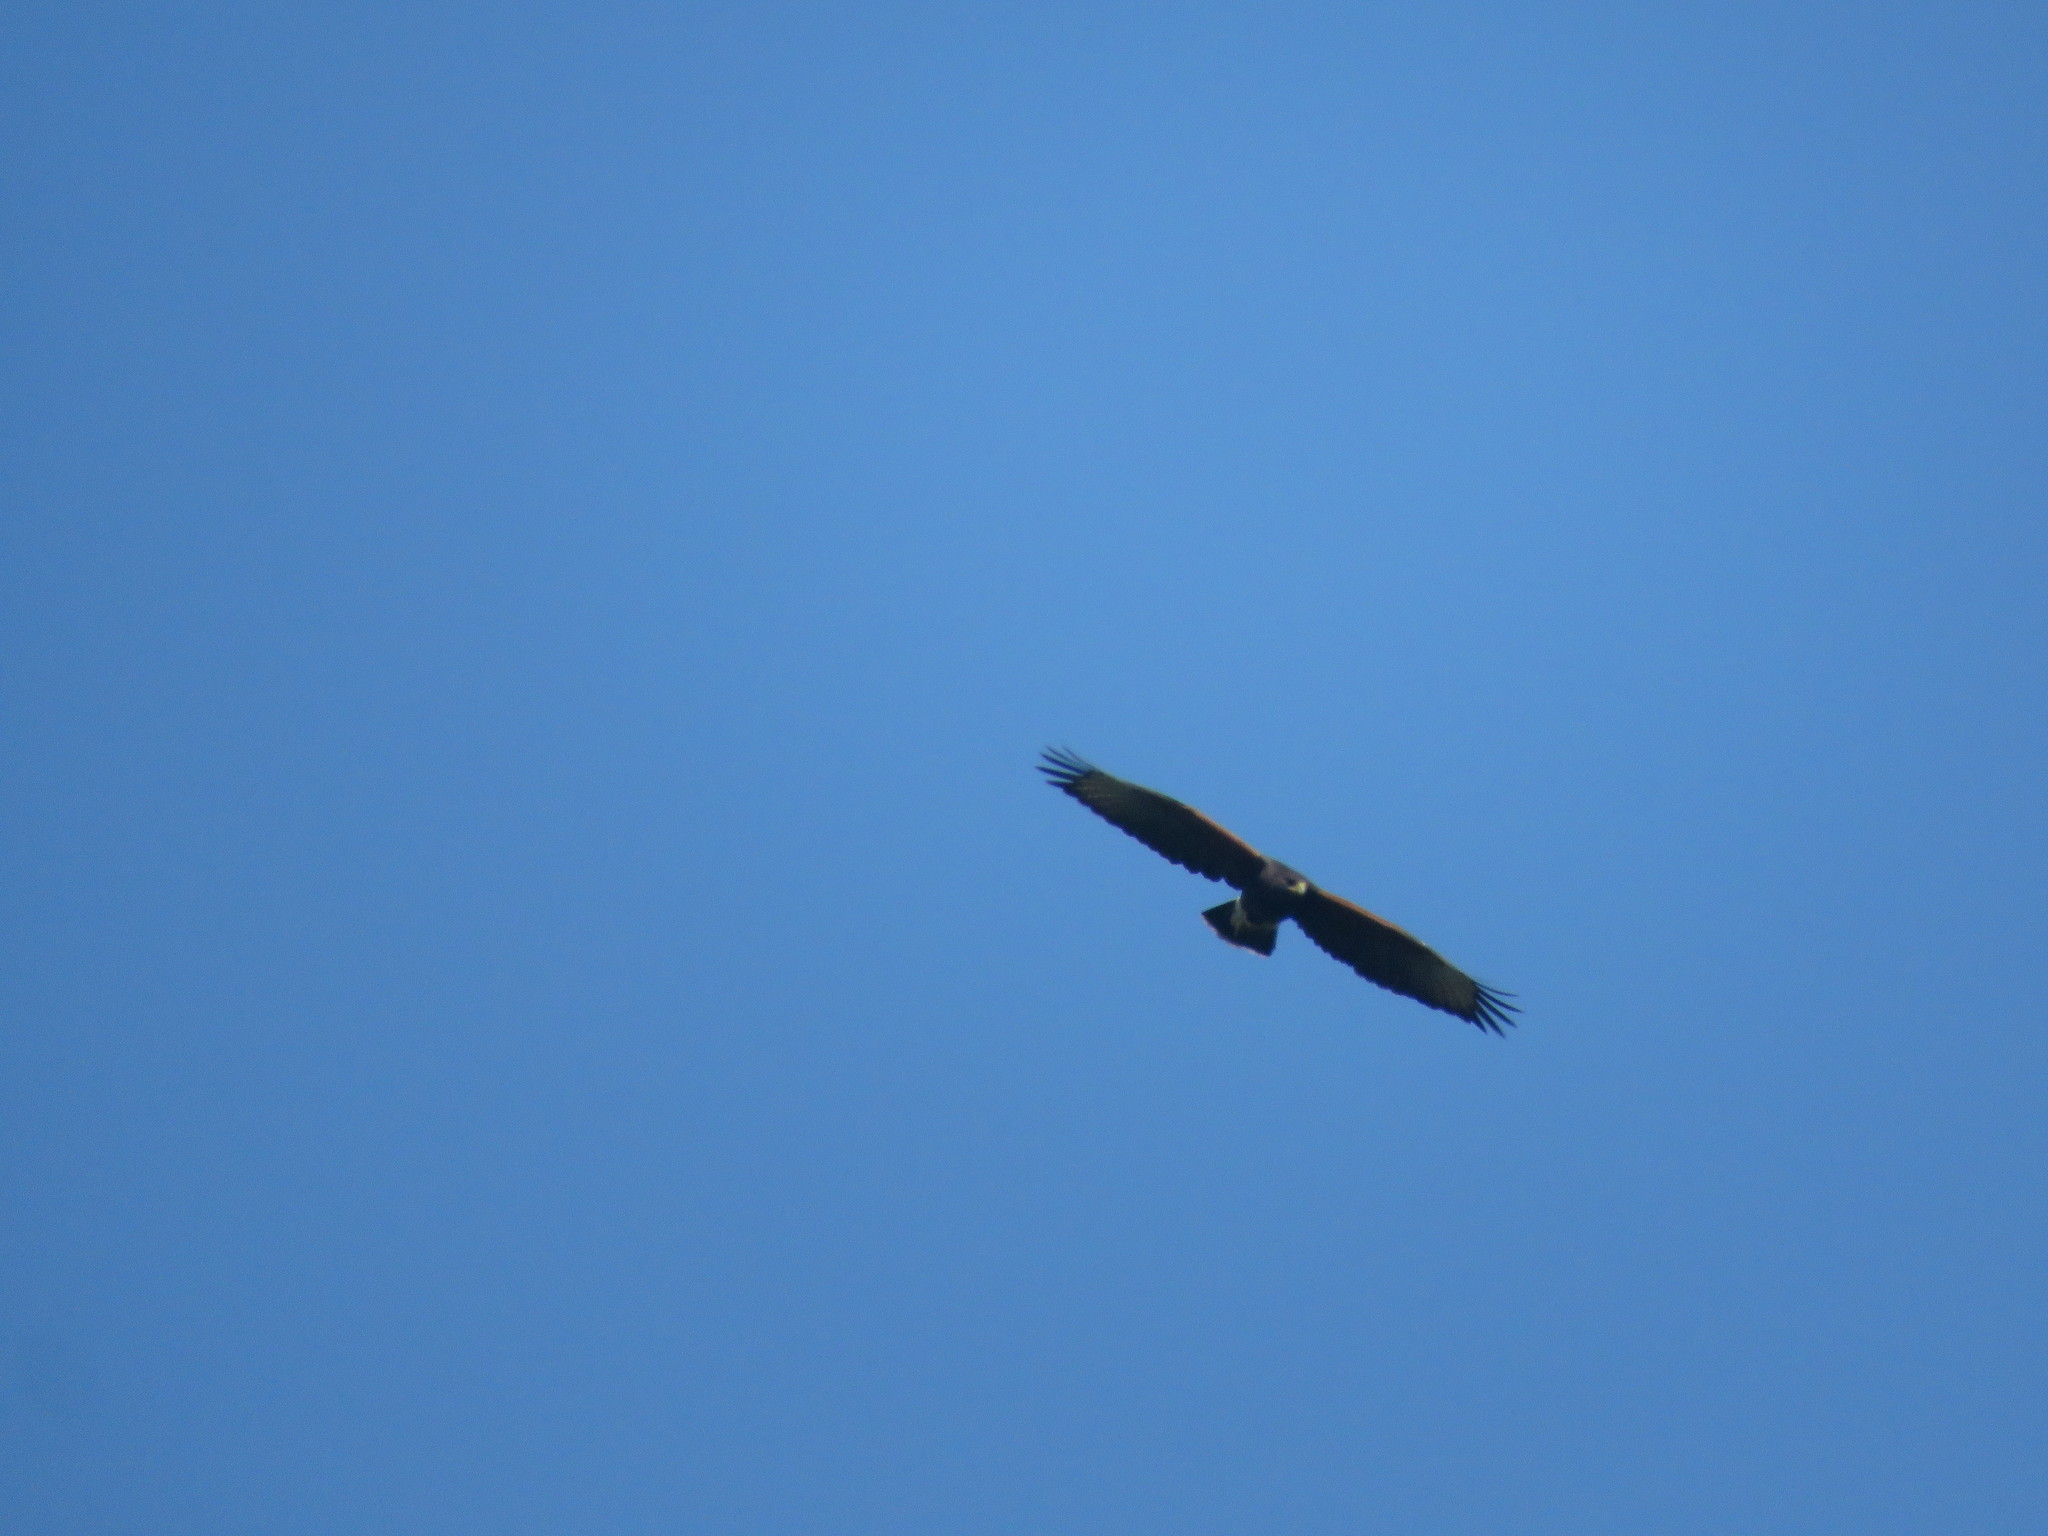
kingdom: Animalia
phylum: Chordata
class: Aves
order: Accipitriformes
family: Accipitridae
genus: Parabuteo
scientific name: Parabuteo unicinctus
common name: Harris's hawk
